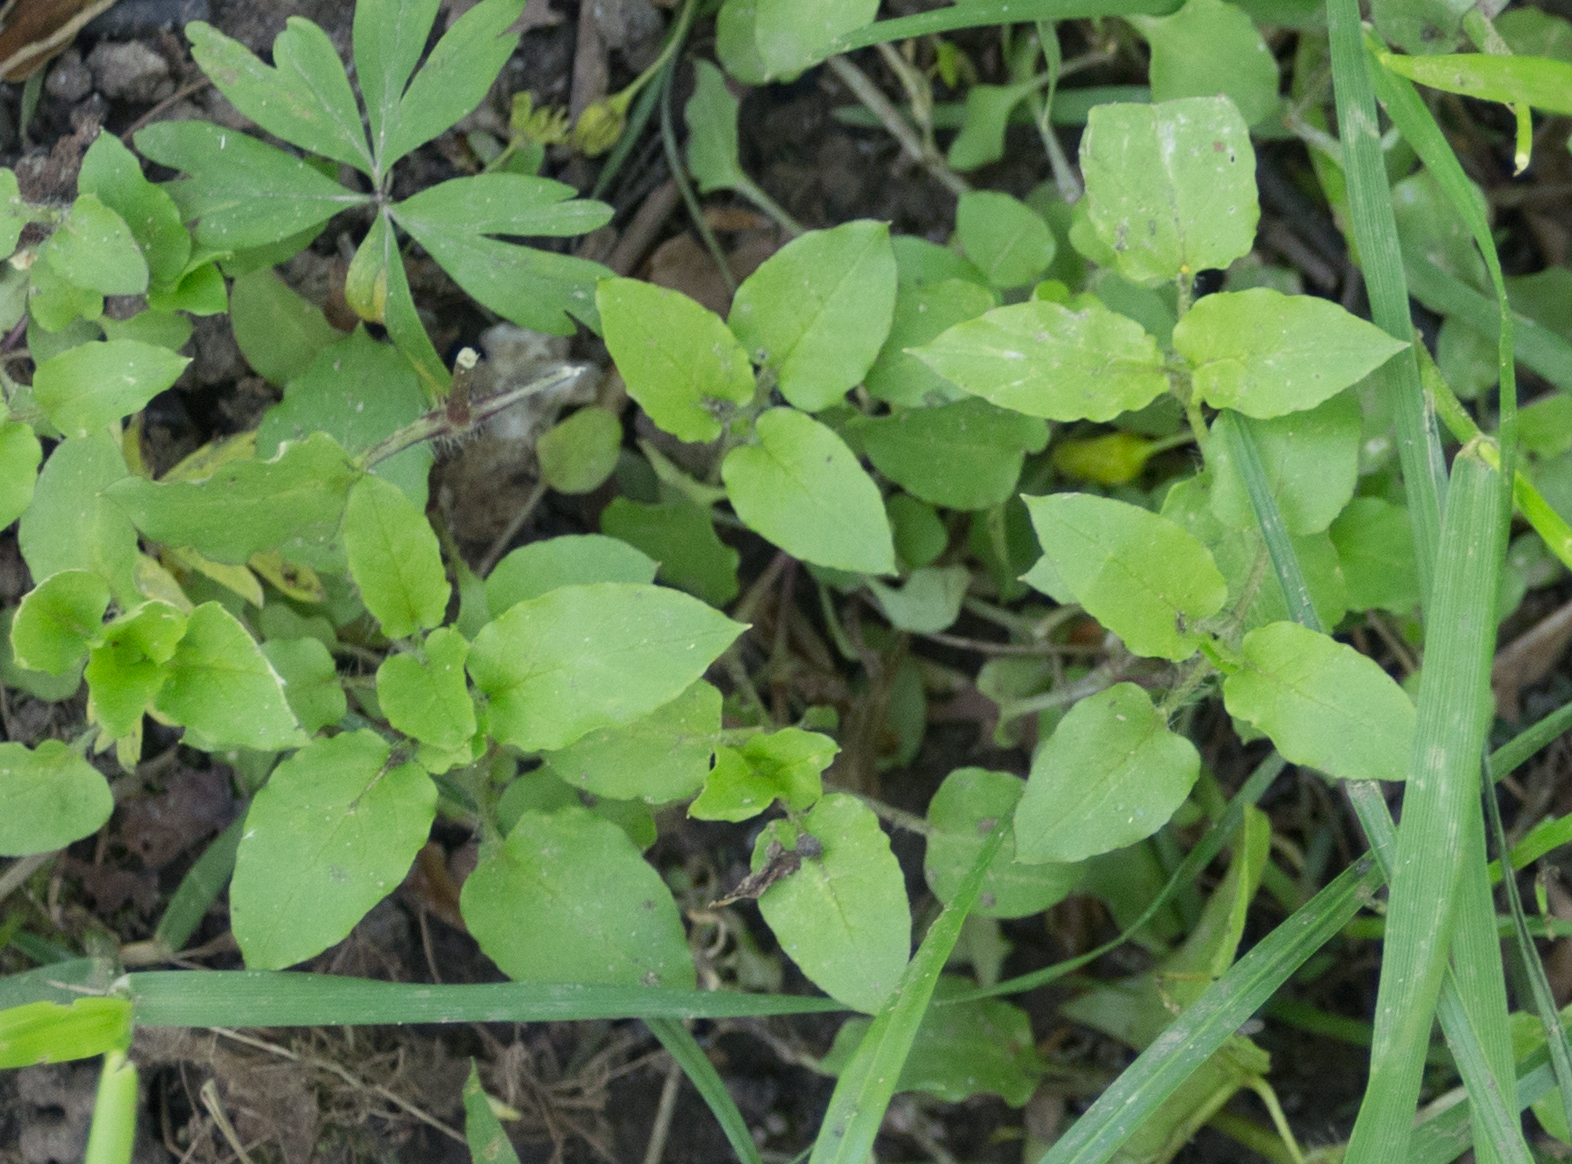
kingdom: Plantae
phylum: Tracheophyta
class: Magnoliopsida
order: Caryophyllales
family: Caryophyllaceae
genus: Stellaria
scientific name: Stellaria aquatica
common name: Water chickweed
